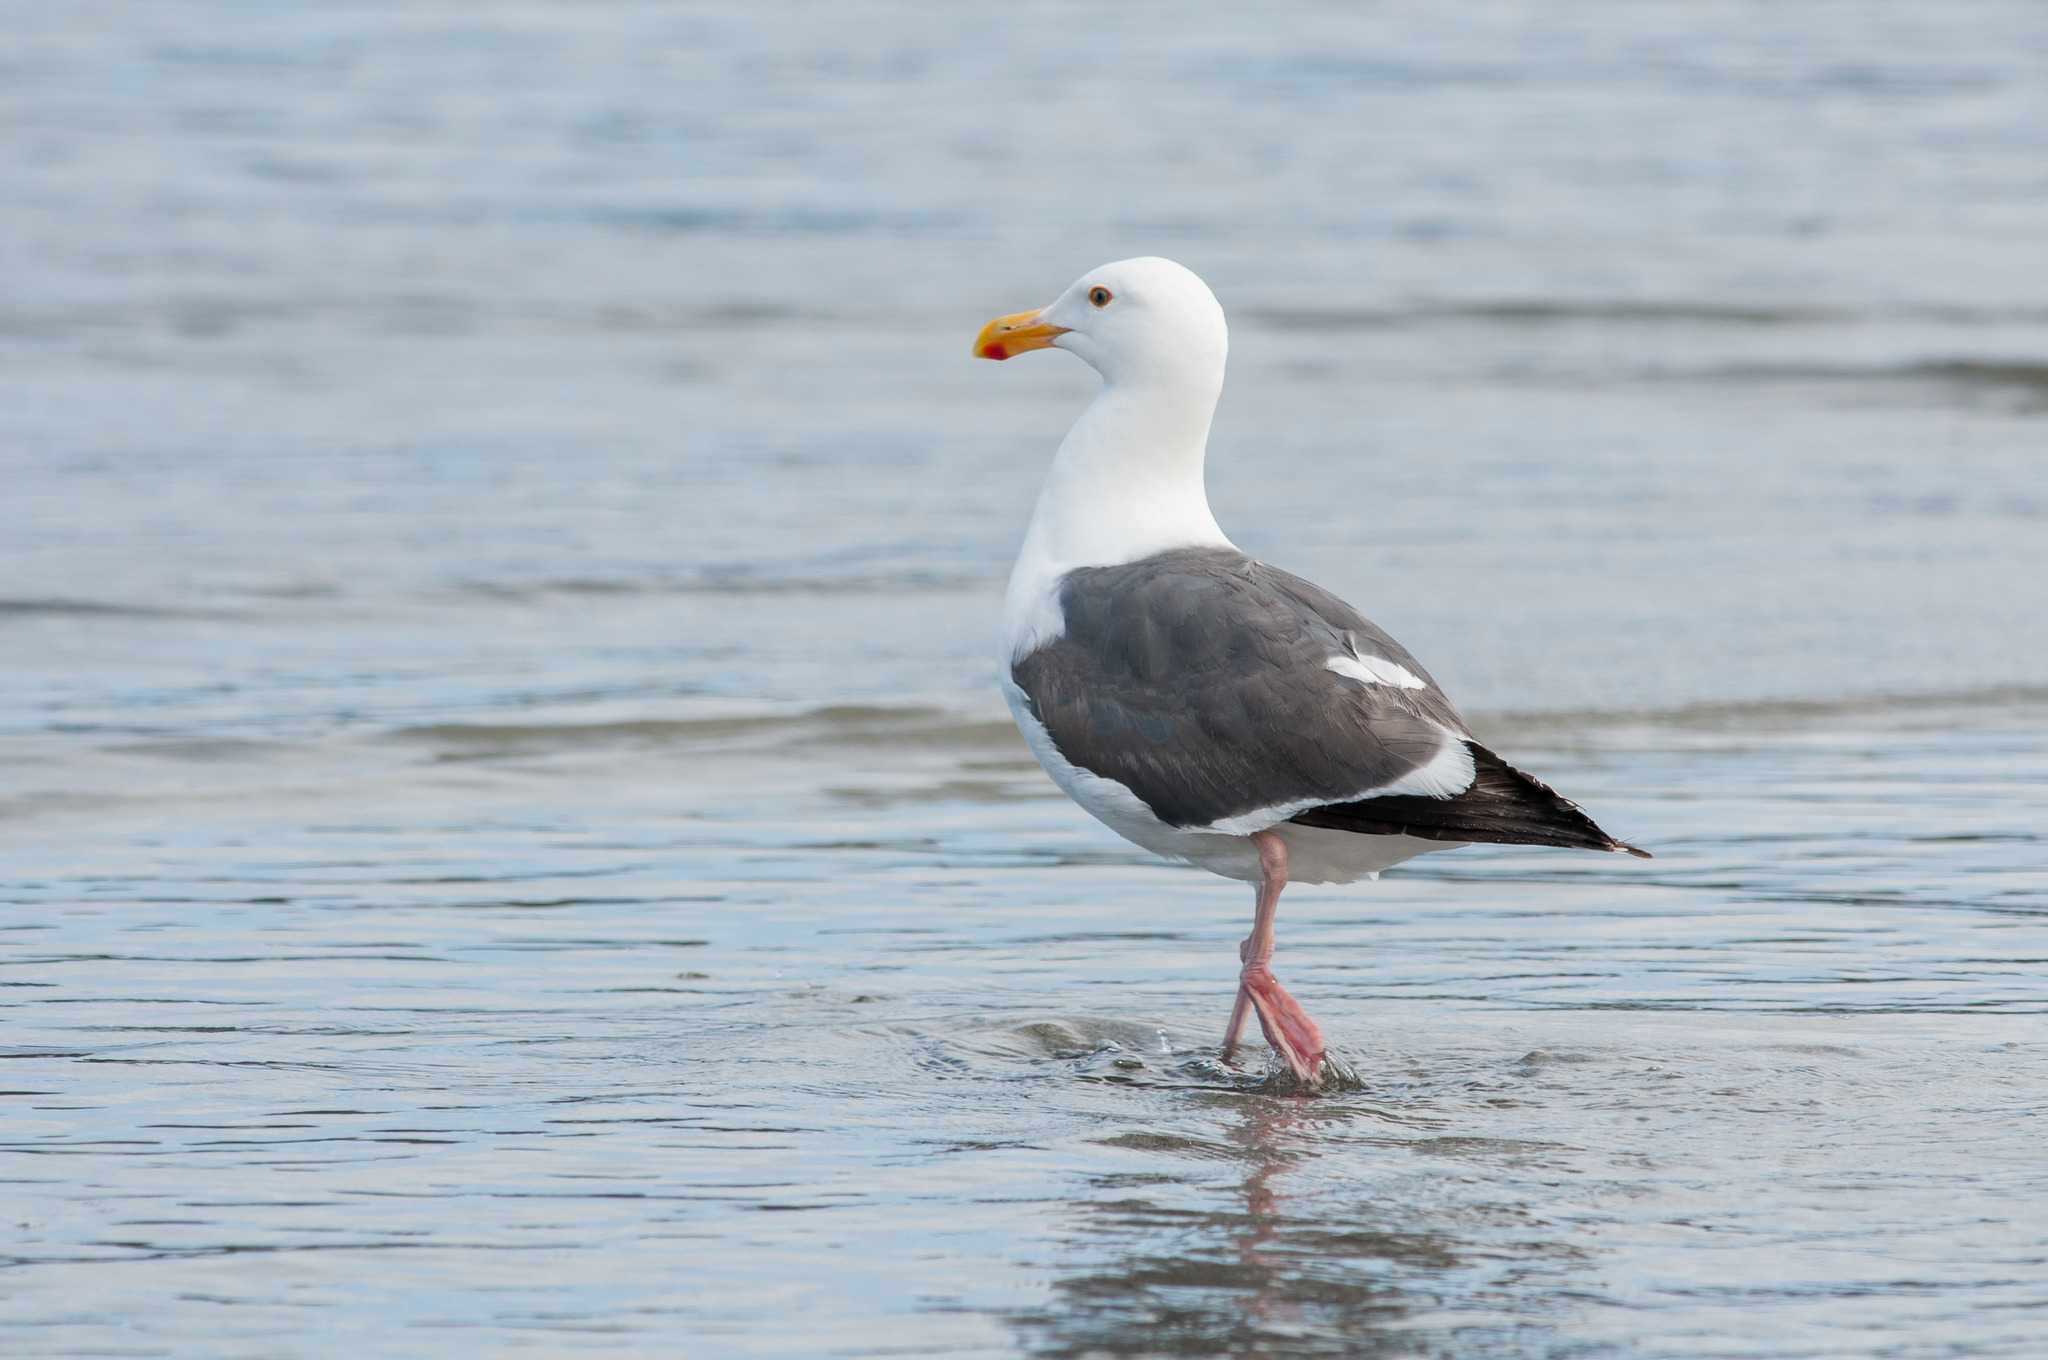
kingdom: Animalia
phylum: Chordata
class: Aves
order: Charadriiformes
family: Laridae
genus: Larus
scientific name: Larus occidentalis
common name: Western gull
